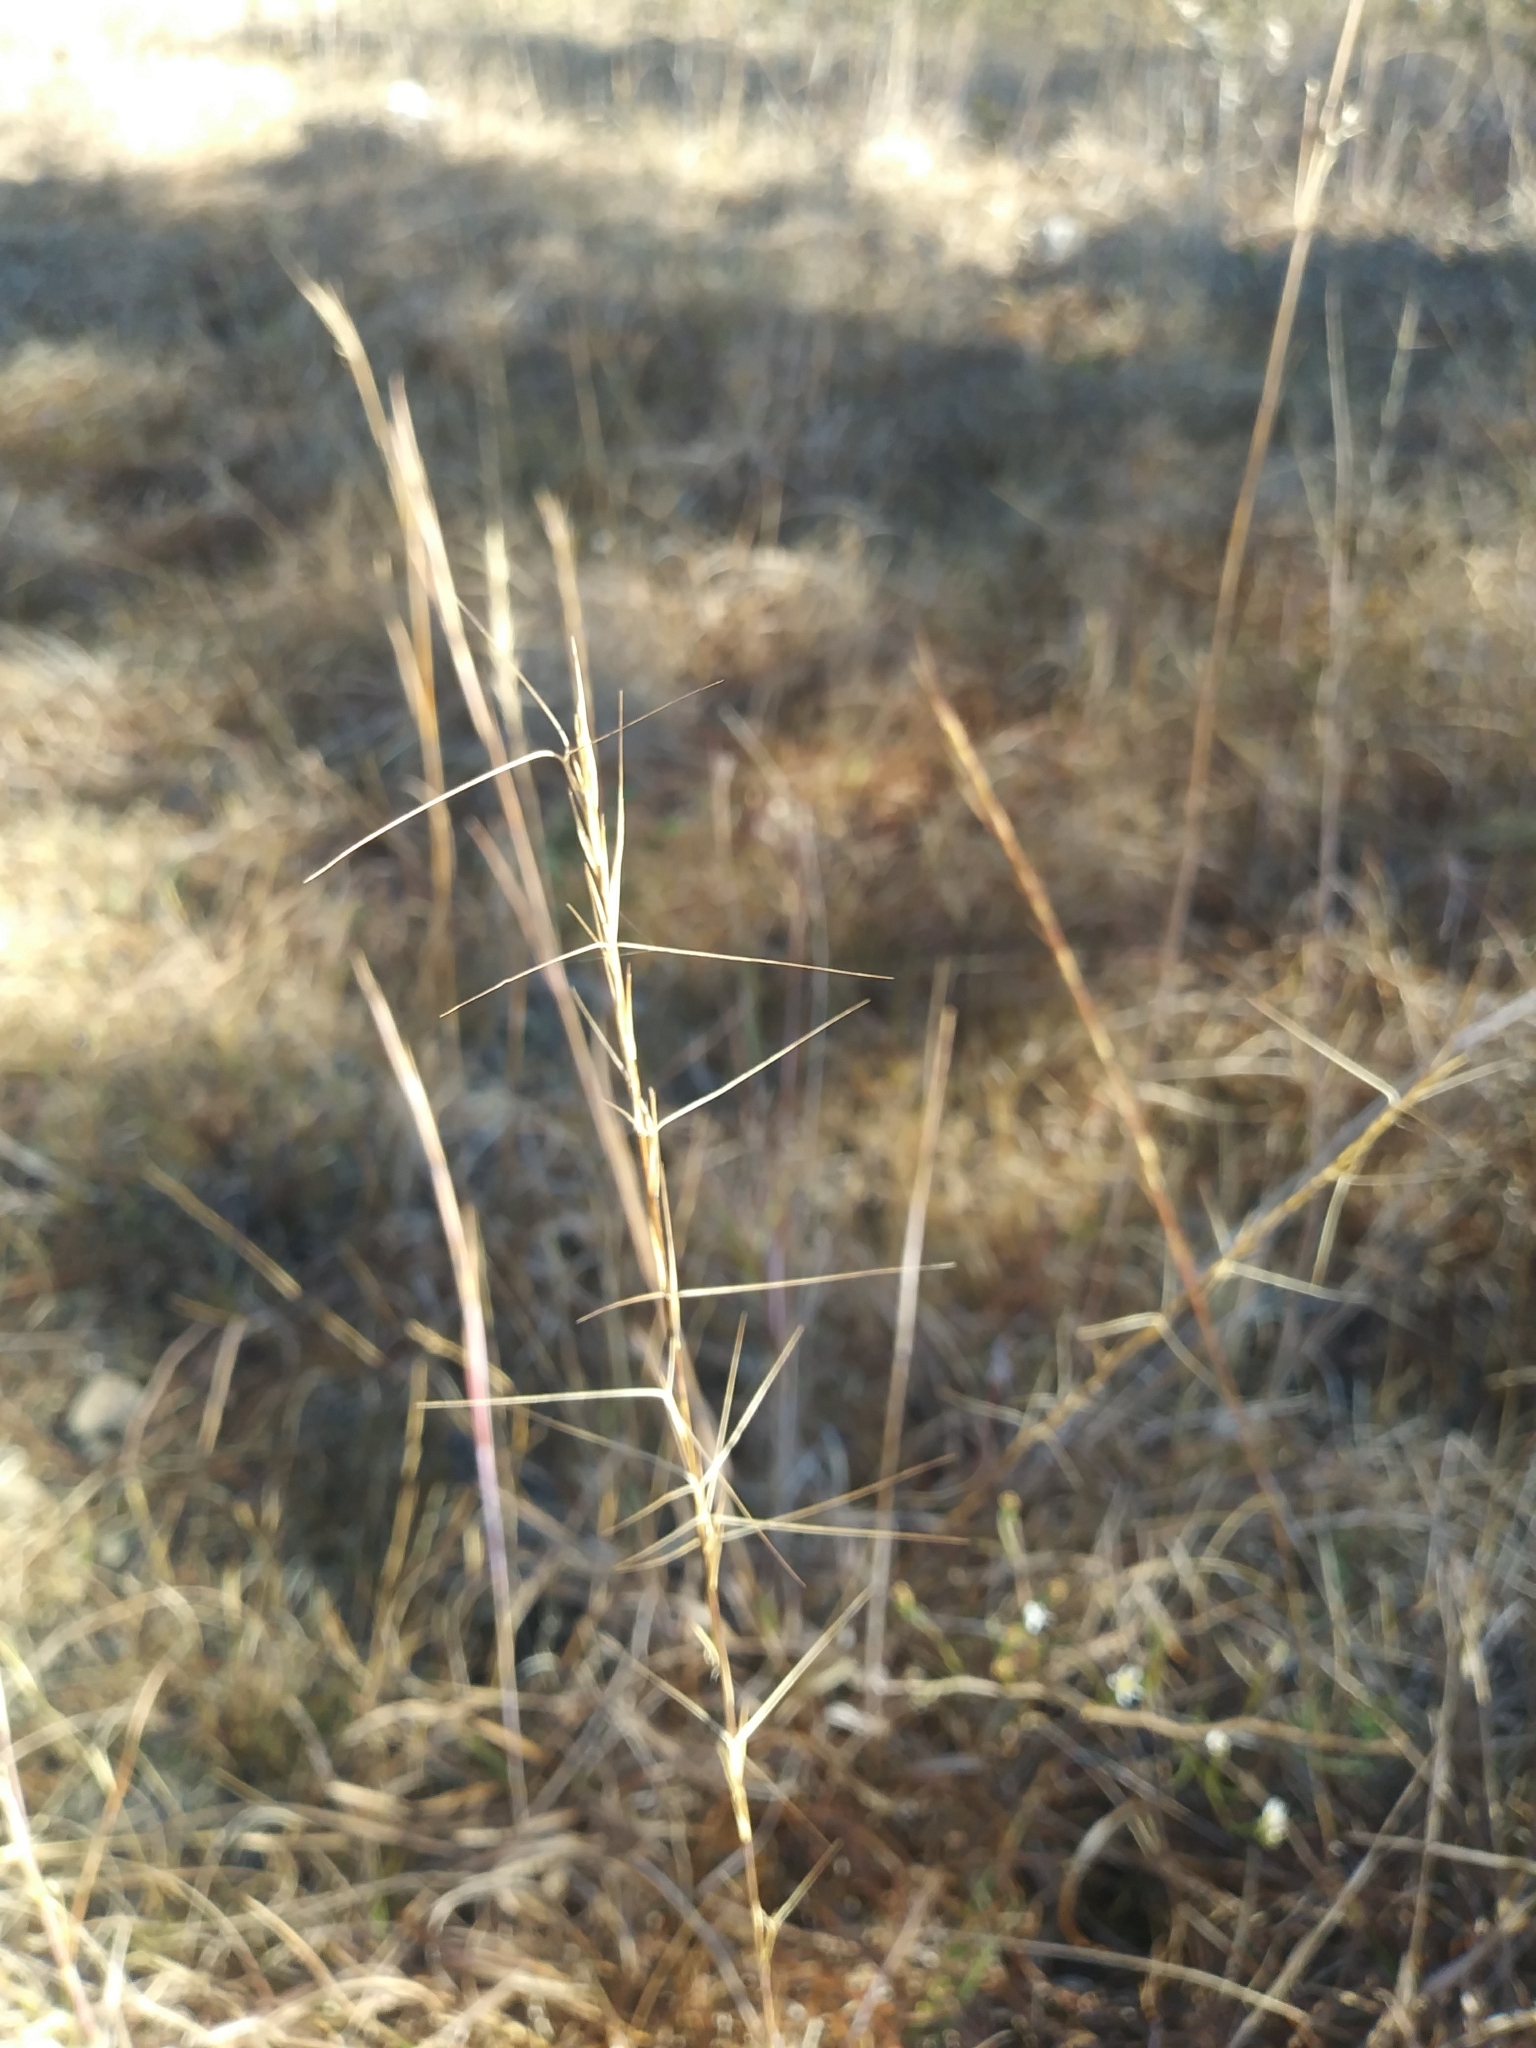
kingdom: Plantae
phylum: Tracheophyta
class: Liliopsida
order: Poales
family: Poaceae
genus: Aristida
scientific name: Aristida purpurascens
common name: Arrow-feather
